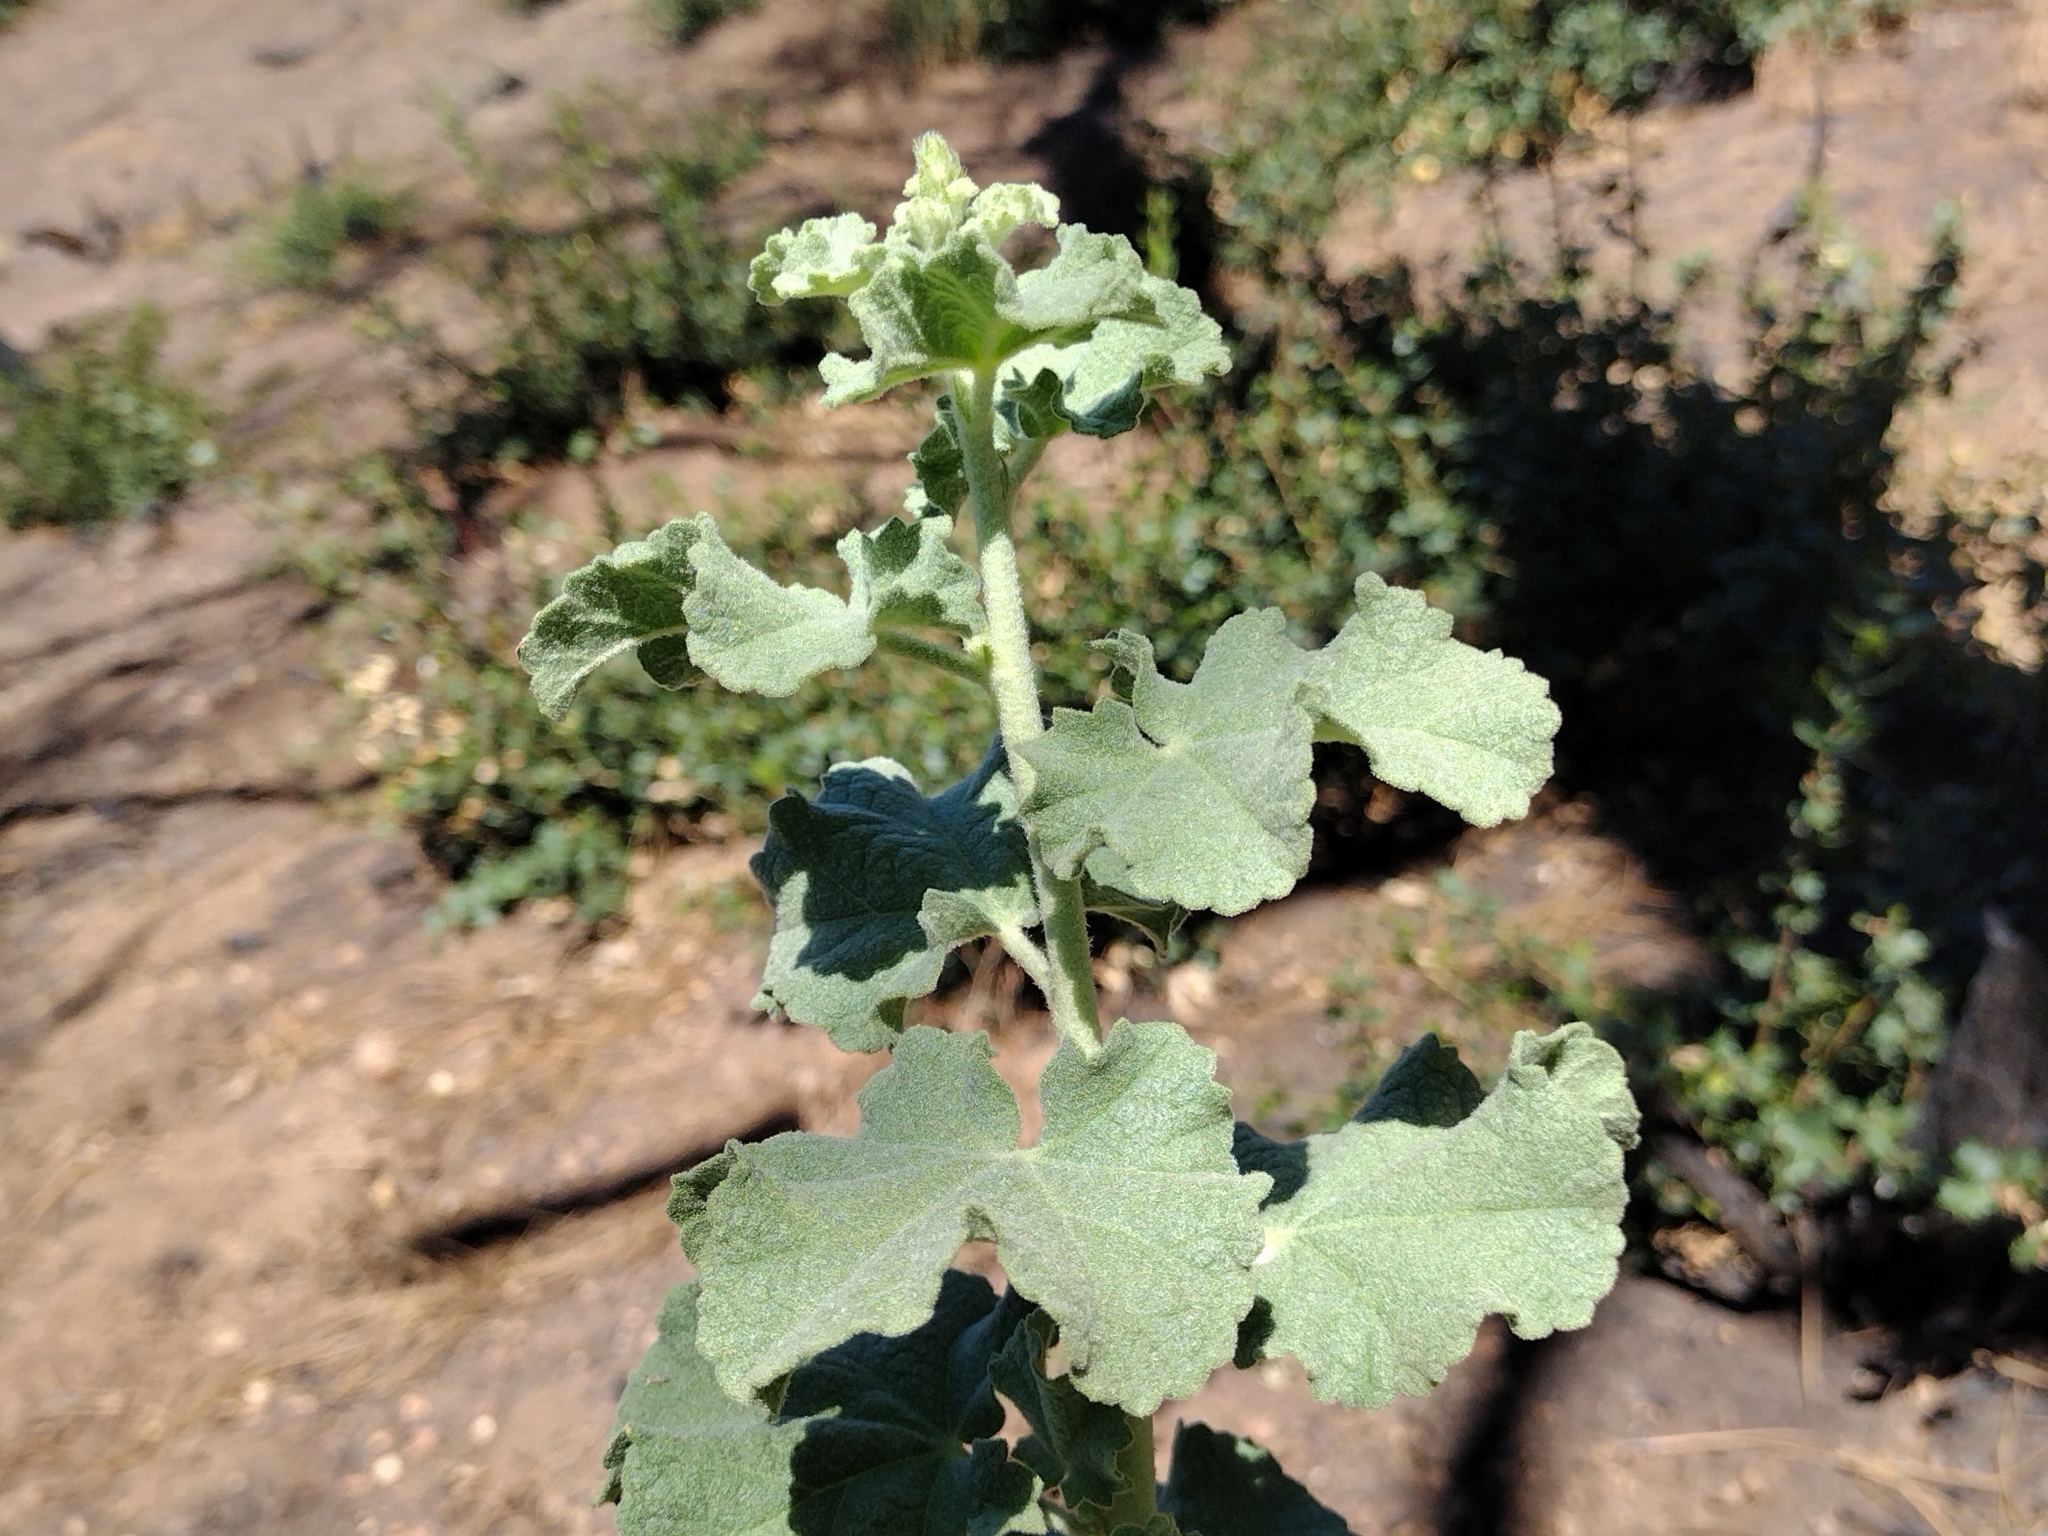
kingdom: Plantae
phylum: Tracheophyta
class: Magnoliopsida
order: Malvales
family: Malvaceae
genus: Malacothamnus
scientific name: Malacothamnus fremontii
